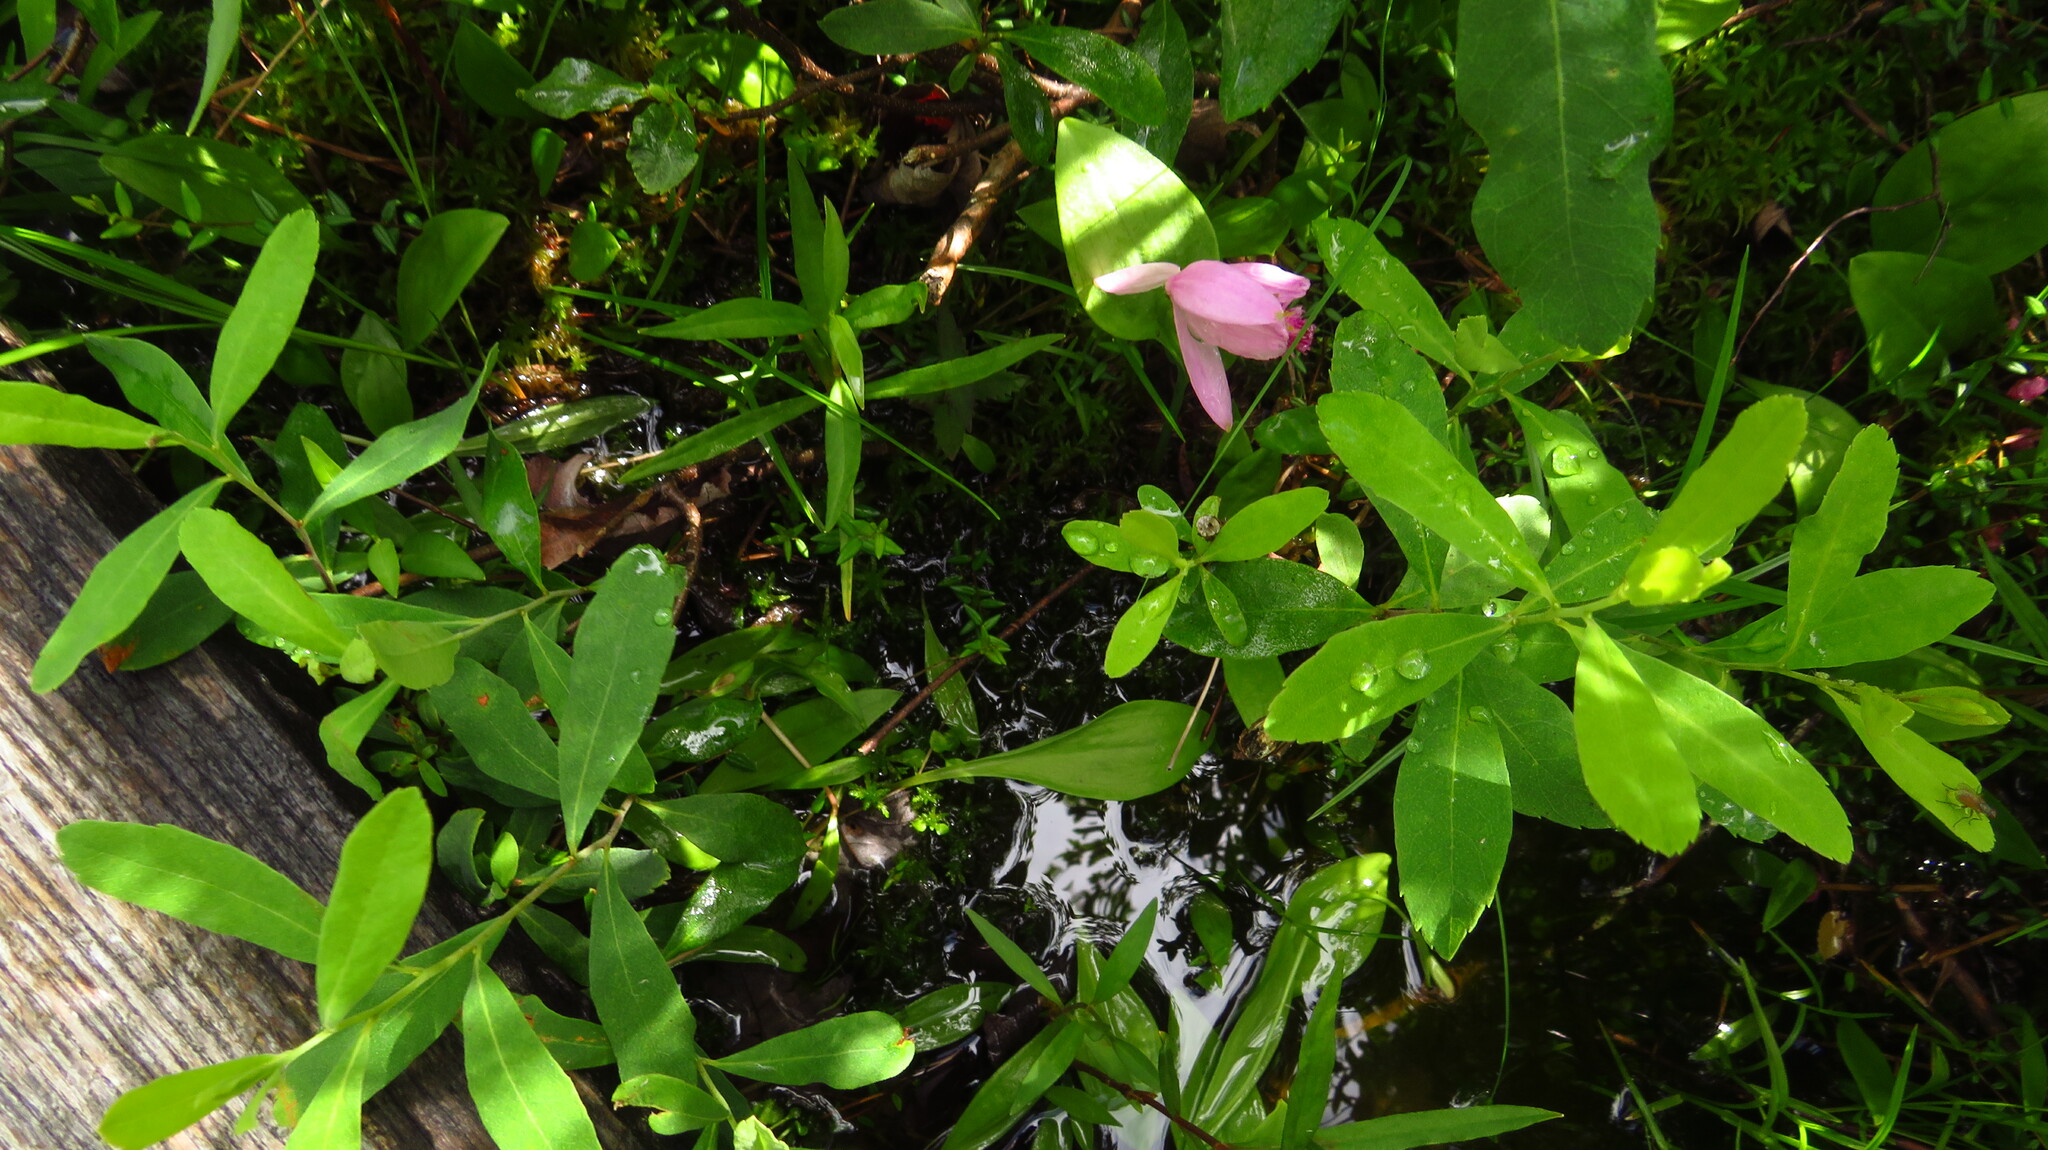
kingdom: Plantae
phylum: Tracheophyta
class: Liliopsida
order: Asparagales
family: Orchidaceae
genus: Pogonia
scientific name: Pogonia ophioglossoides
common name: Rose pogonia
